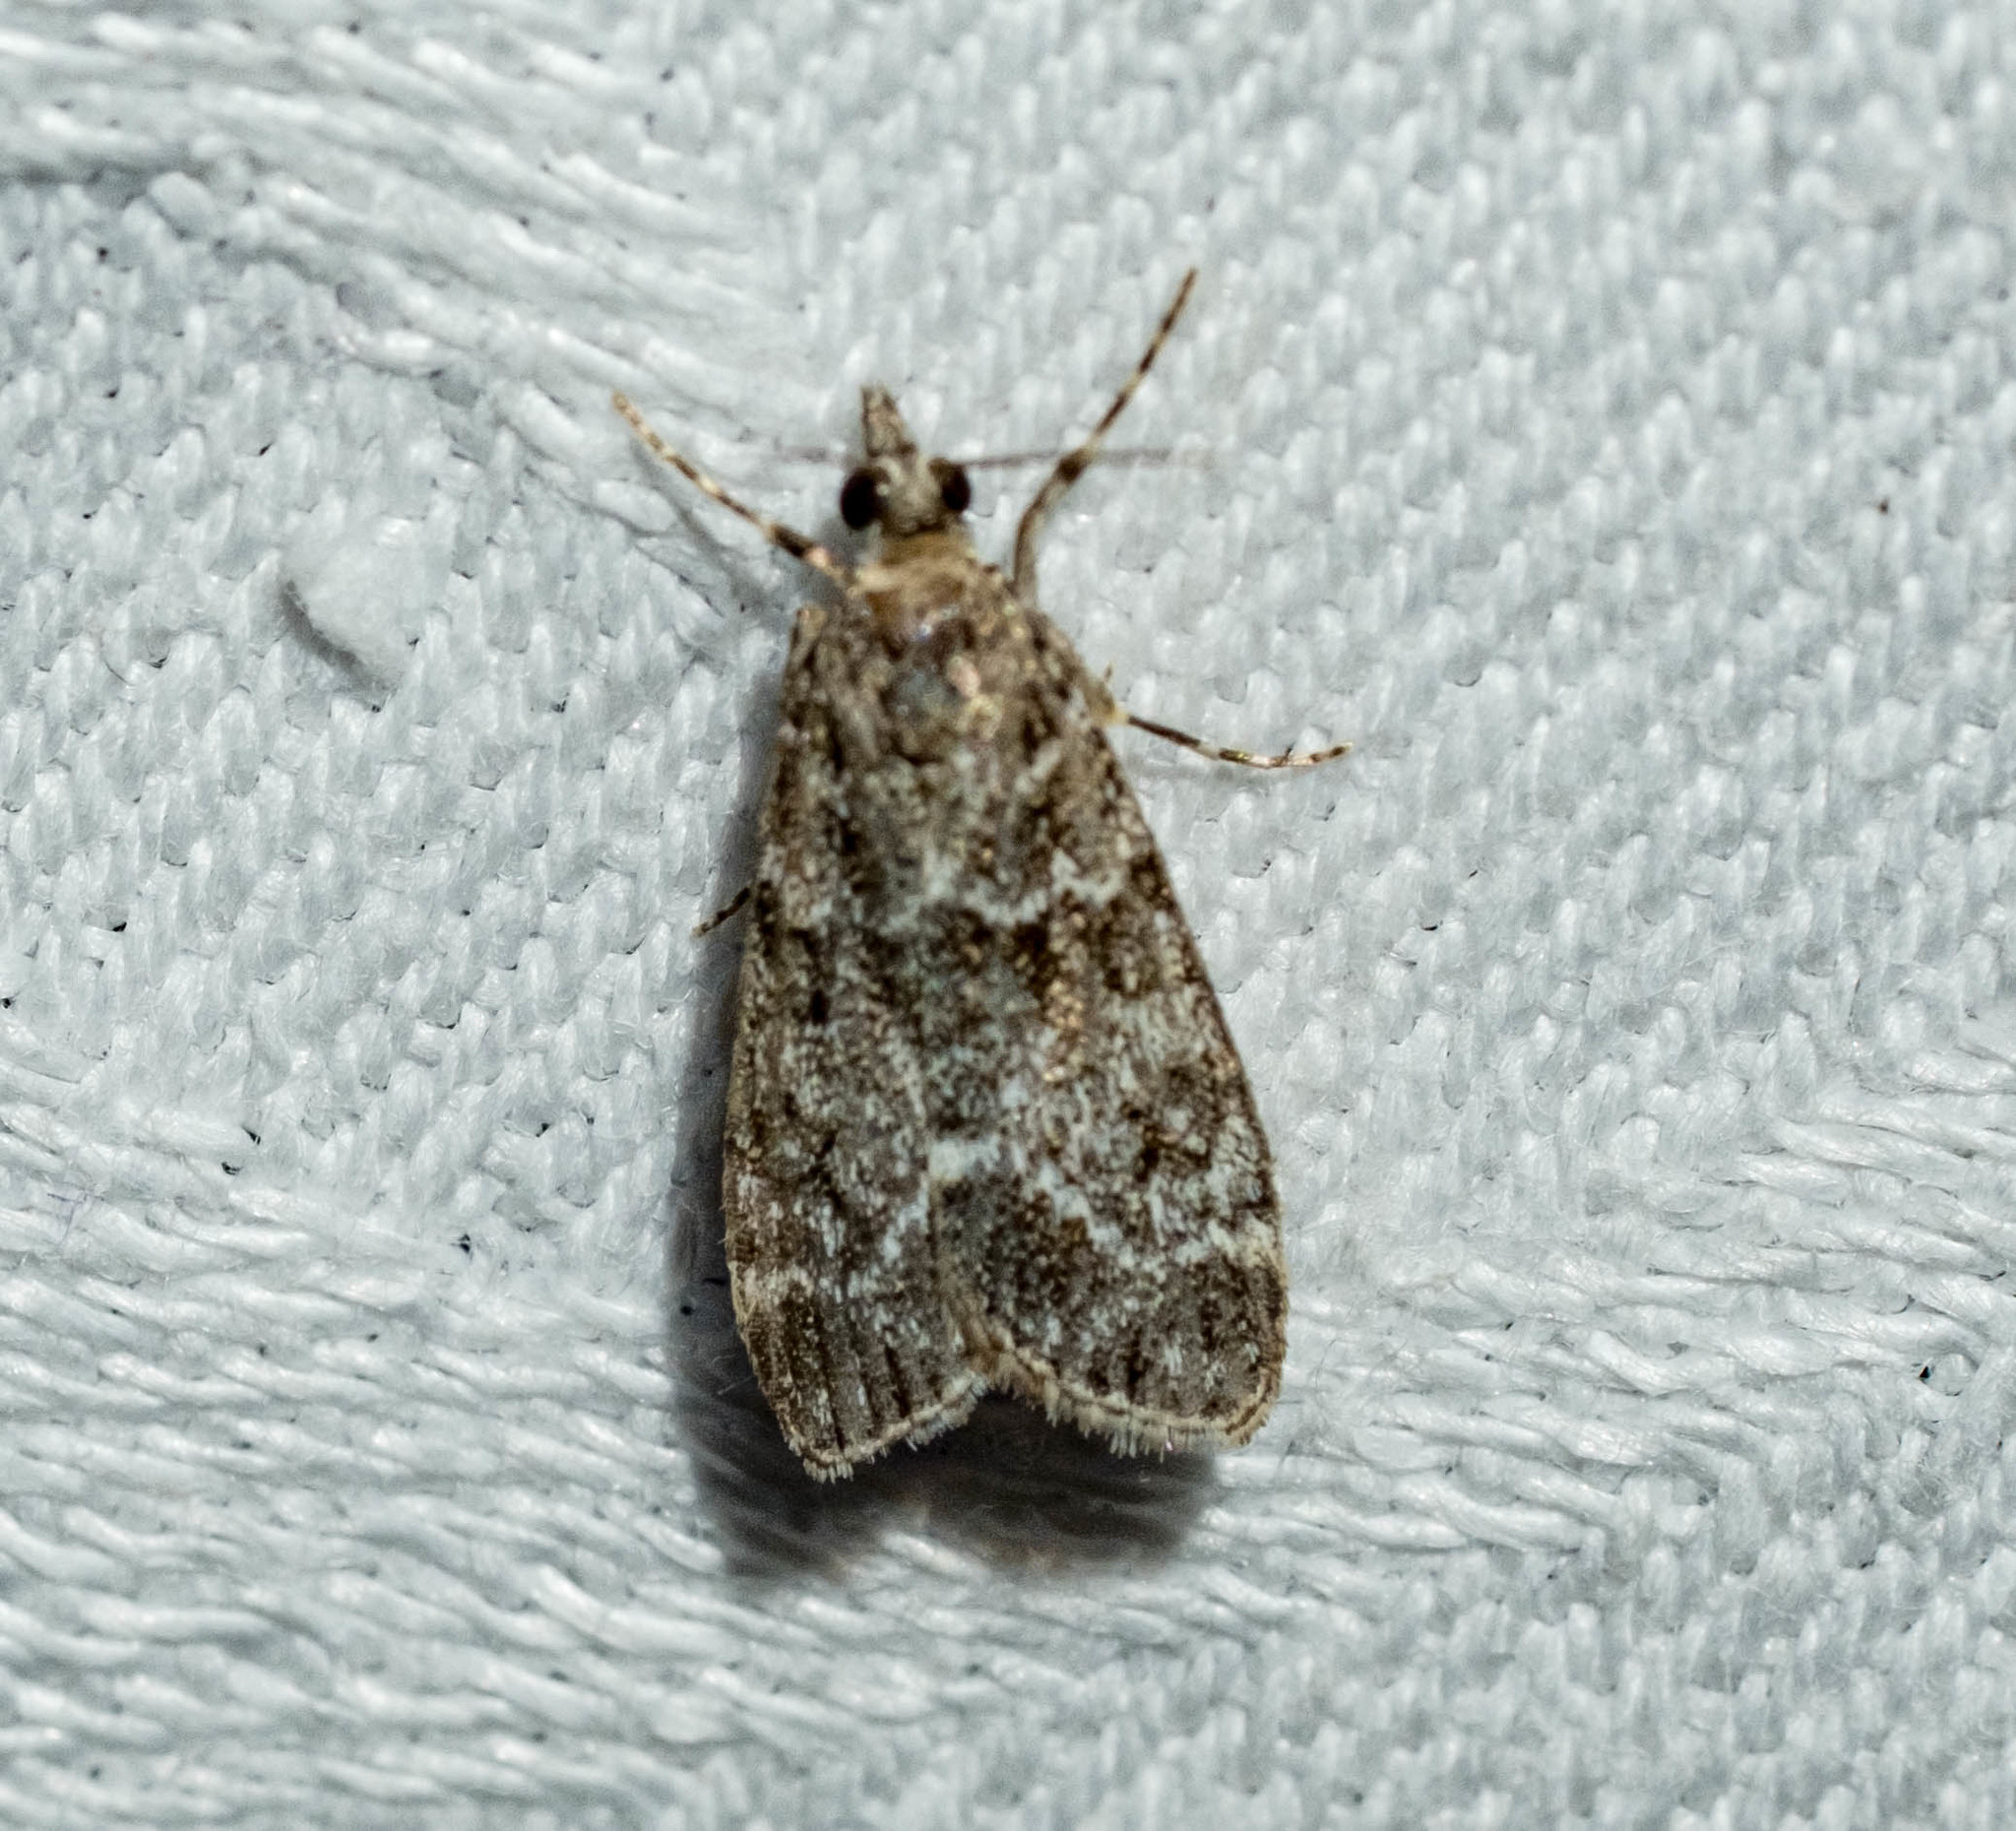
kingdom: Animalia
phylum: Arthropoda
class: Insecta
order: Lepidoptera
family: Crambidae
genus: Eudonia
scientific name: Eudonia mercurella
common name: Small grey
